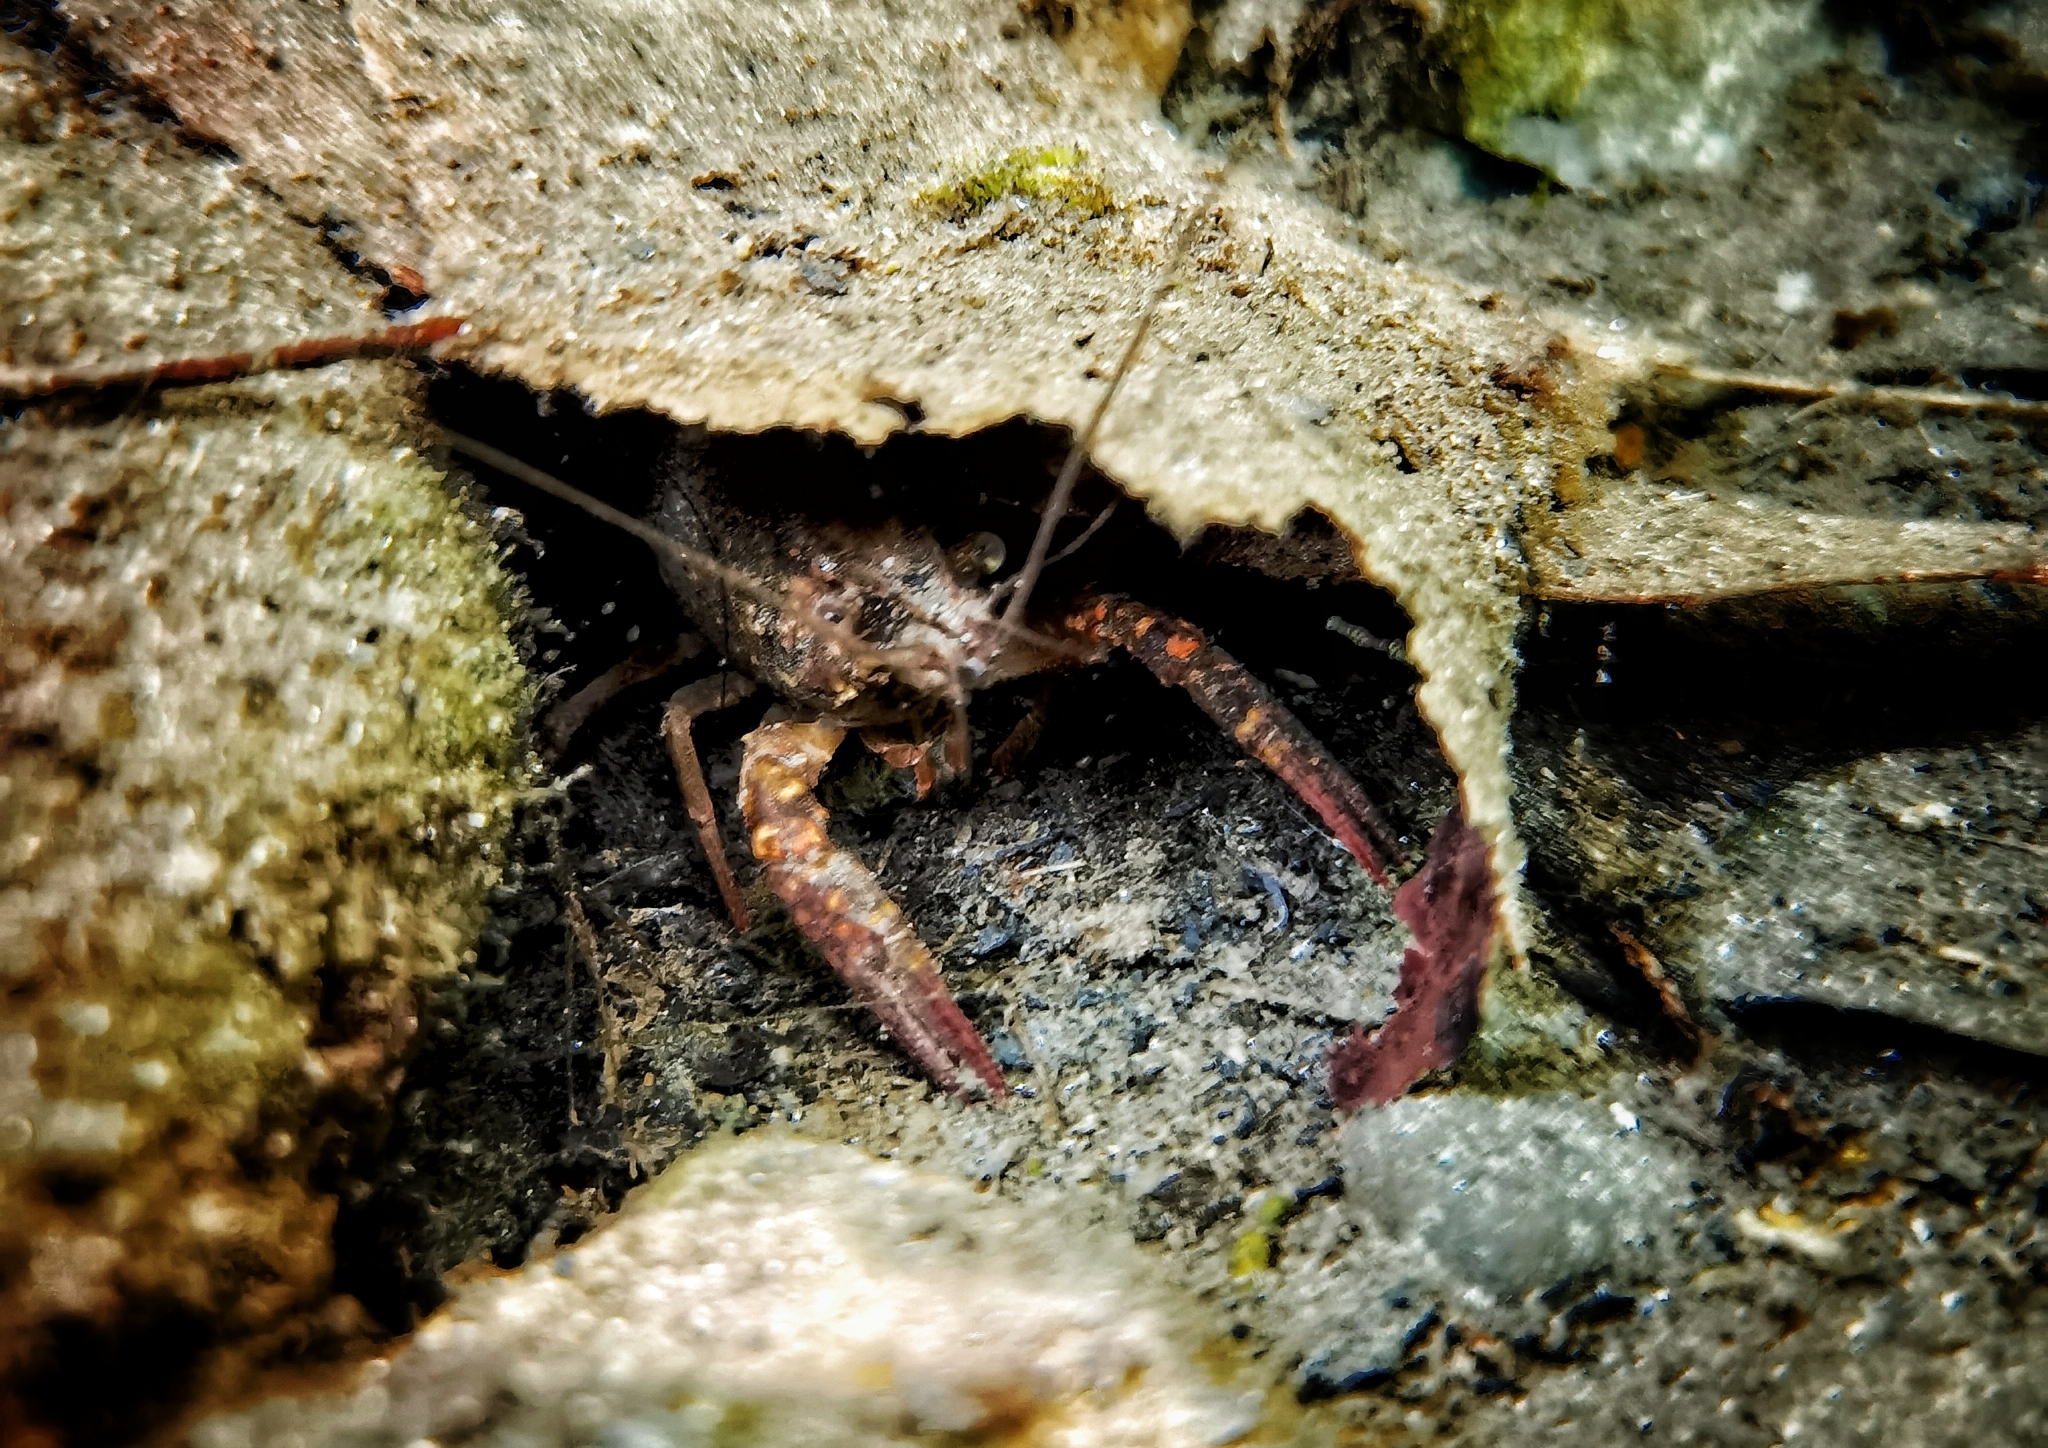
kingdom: Animalia
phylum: Arthropoda
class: Malacostraca
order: Decapoda
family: Cambaridae
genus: Procambarus
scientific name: Procambarus clarkii
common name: Red swamp crayfish
